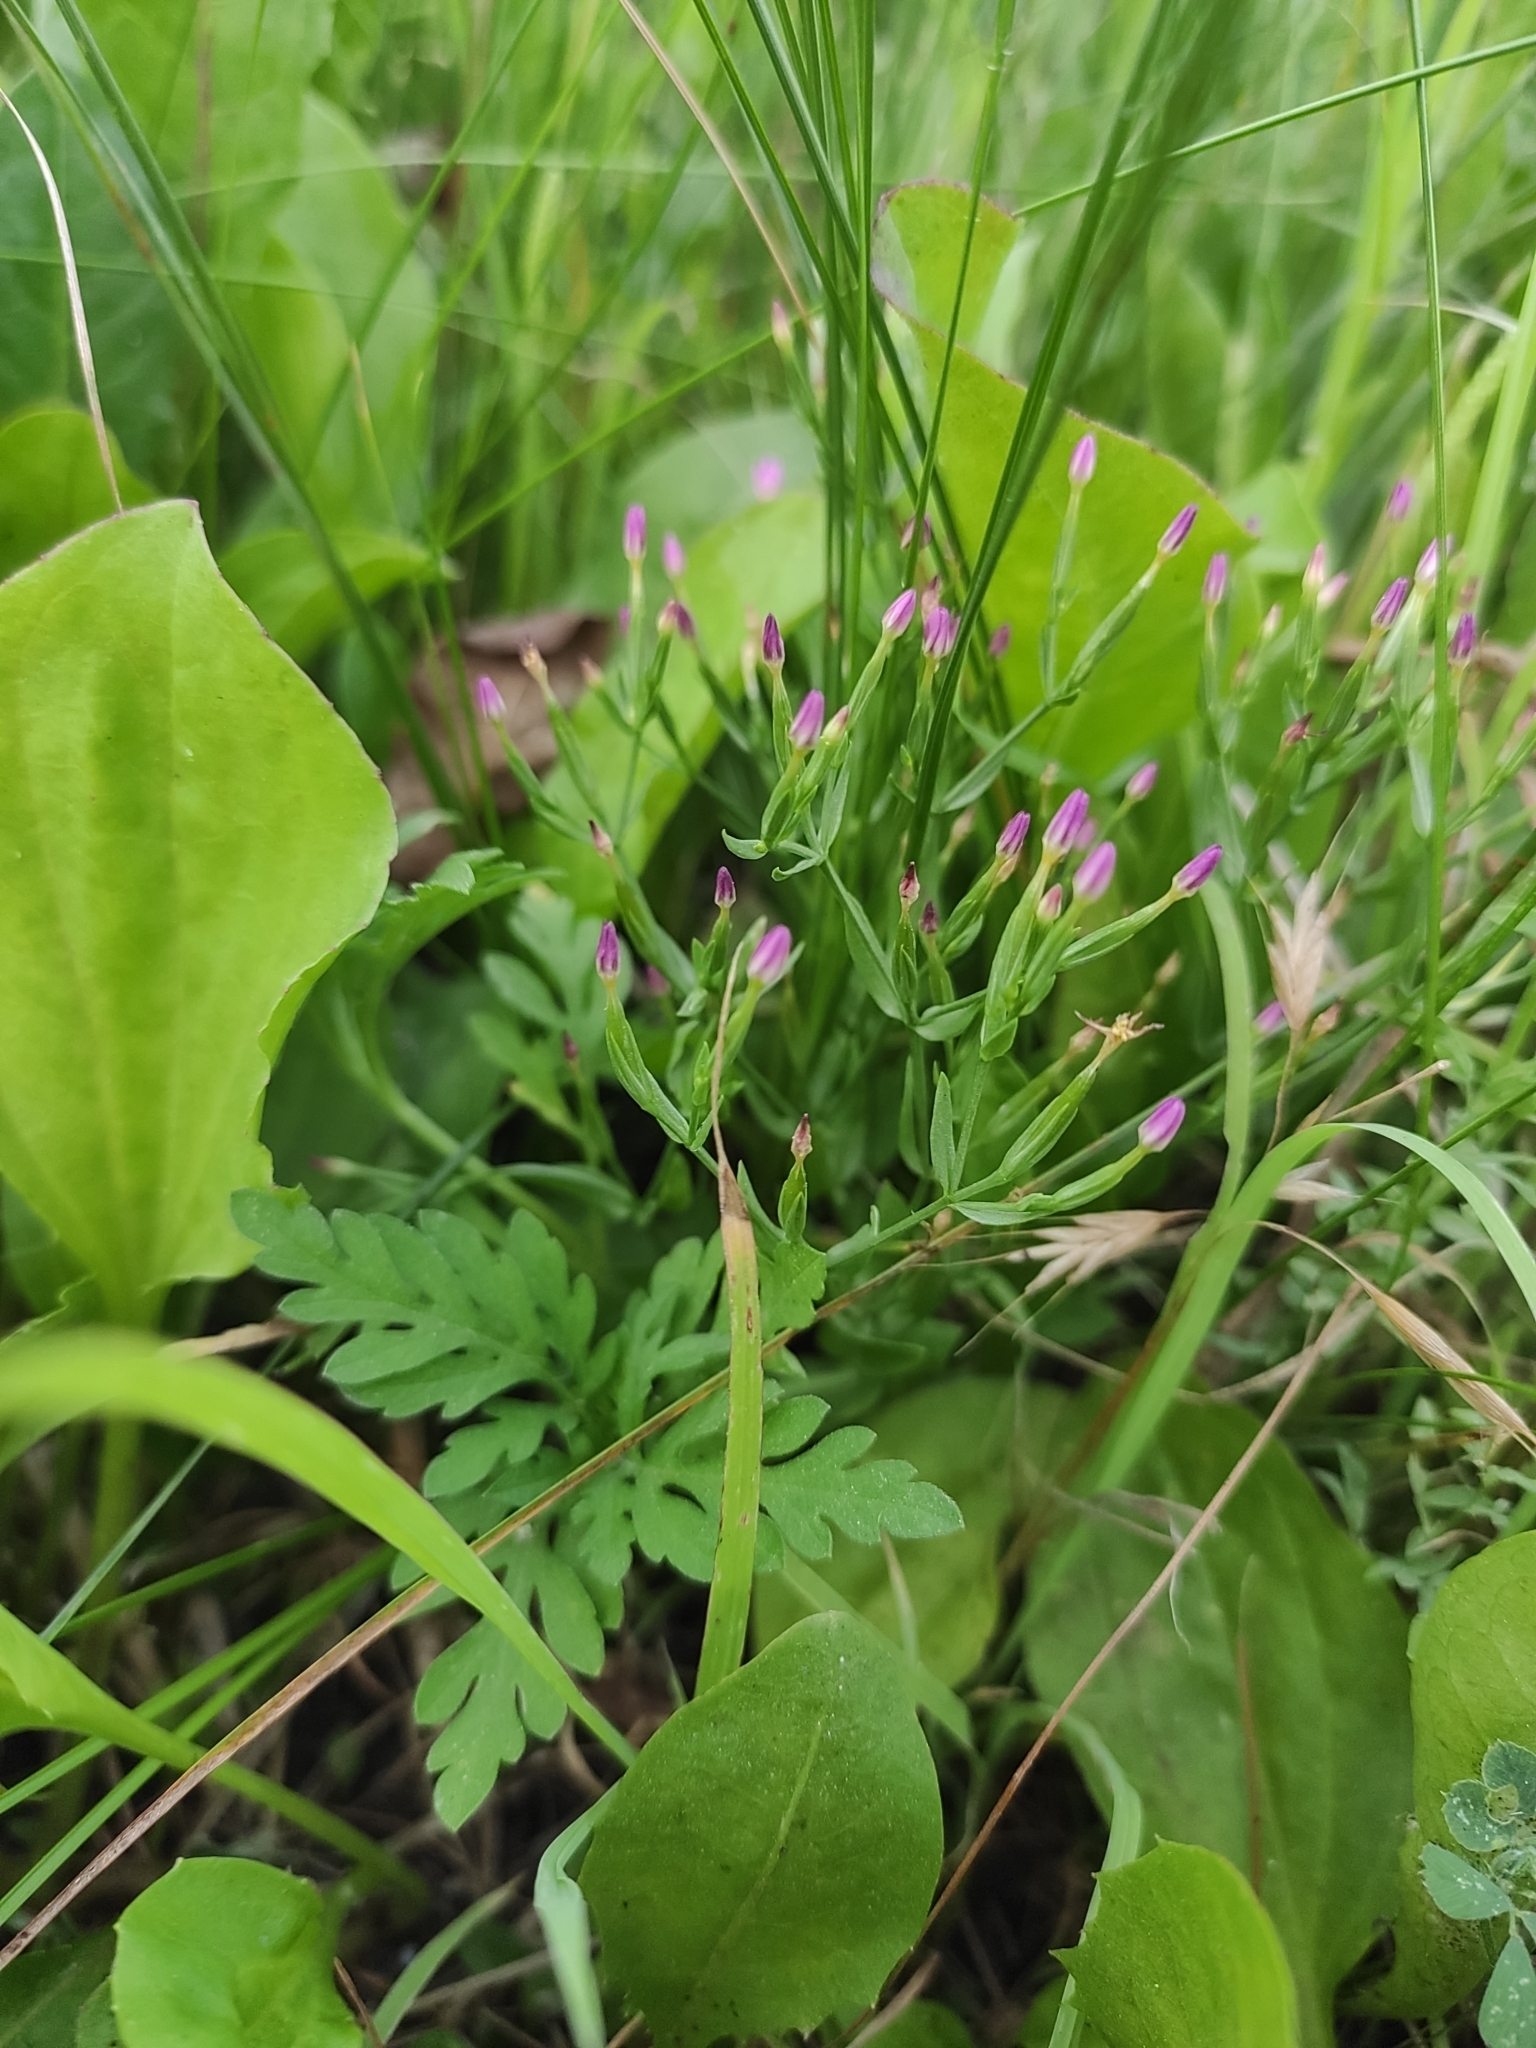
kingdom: Plantae
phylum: Tracheophyta
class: Magnoliopsida
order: Gentianales
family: Gentianaceae
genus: Centaurium
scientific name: Centaurium pulchellum
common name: Lesser centaury
